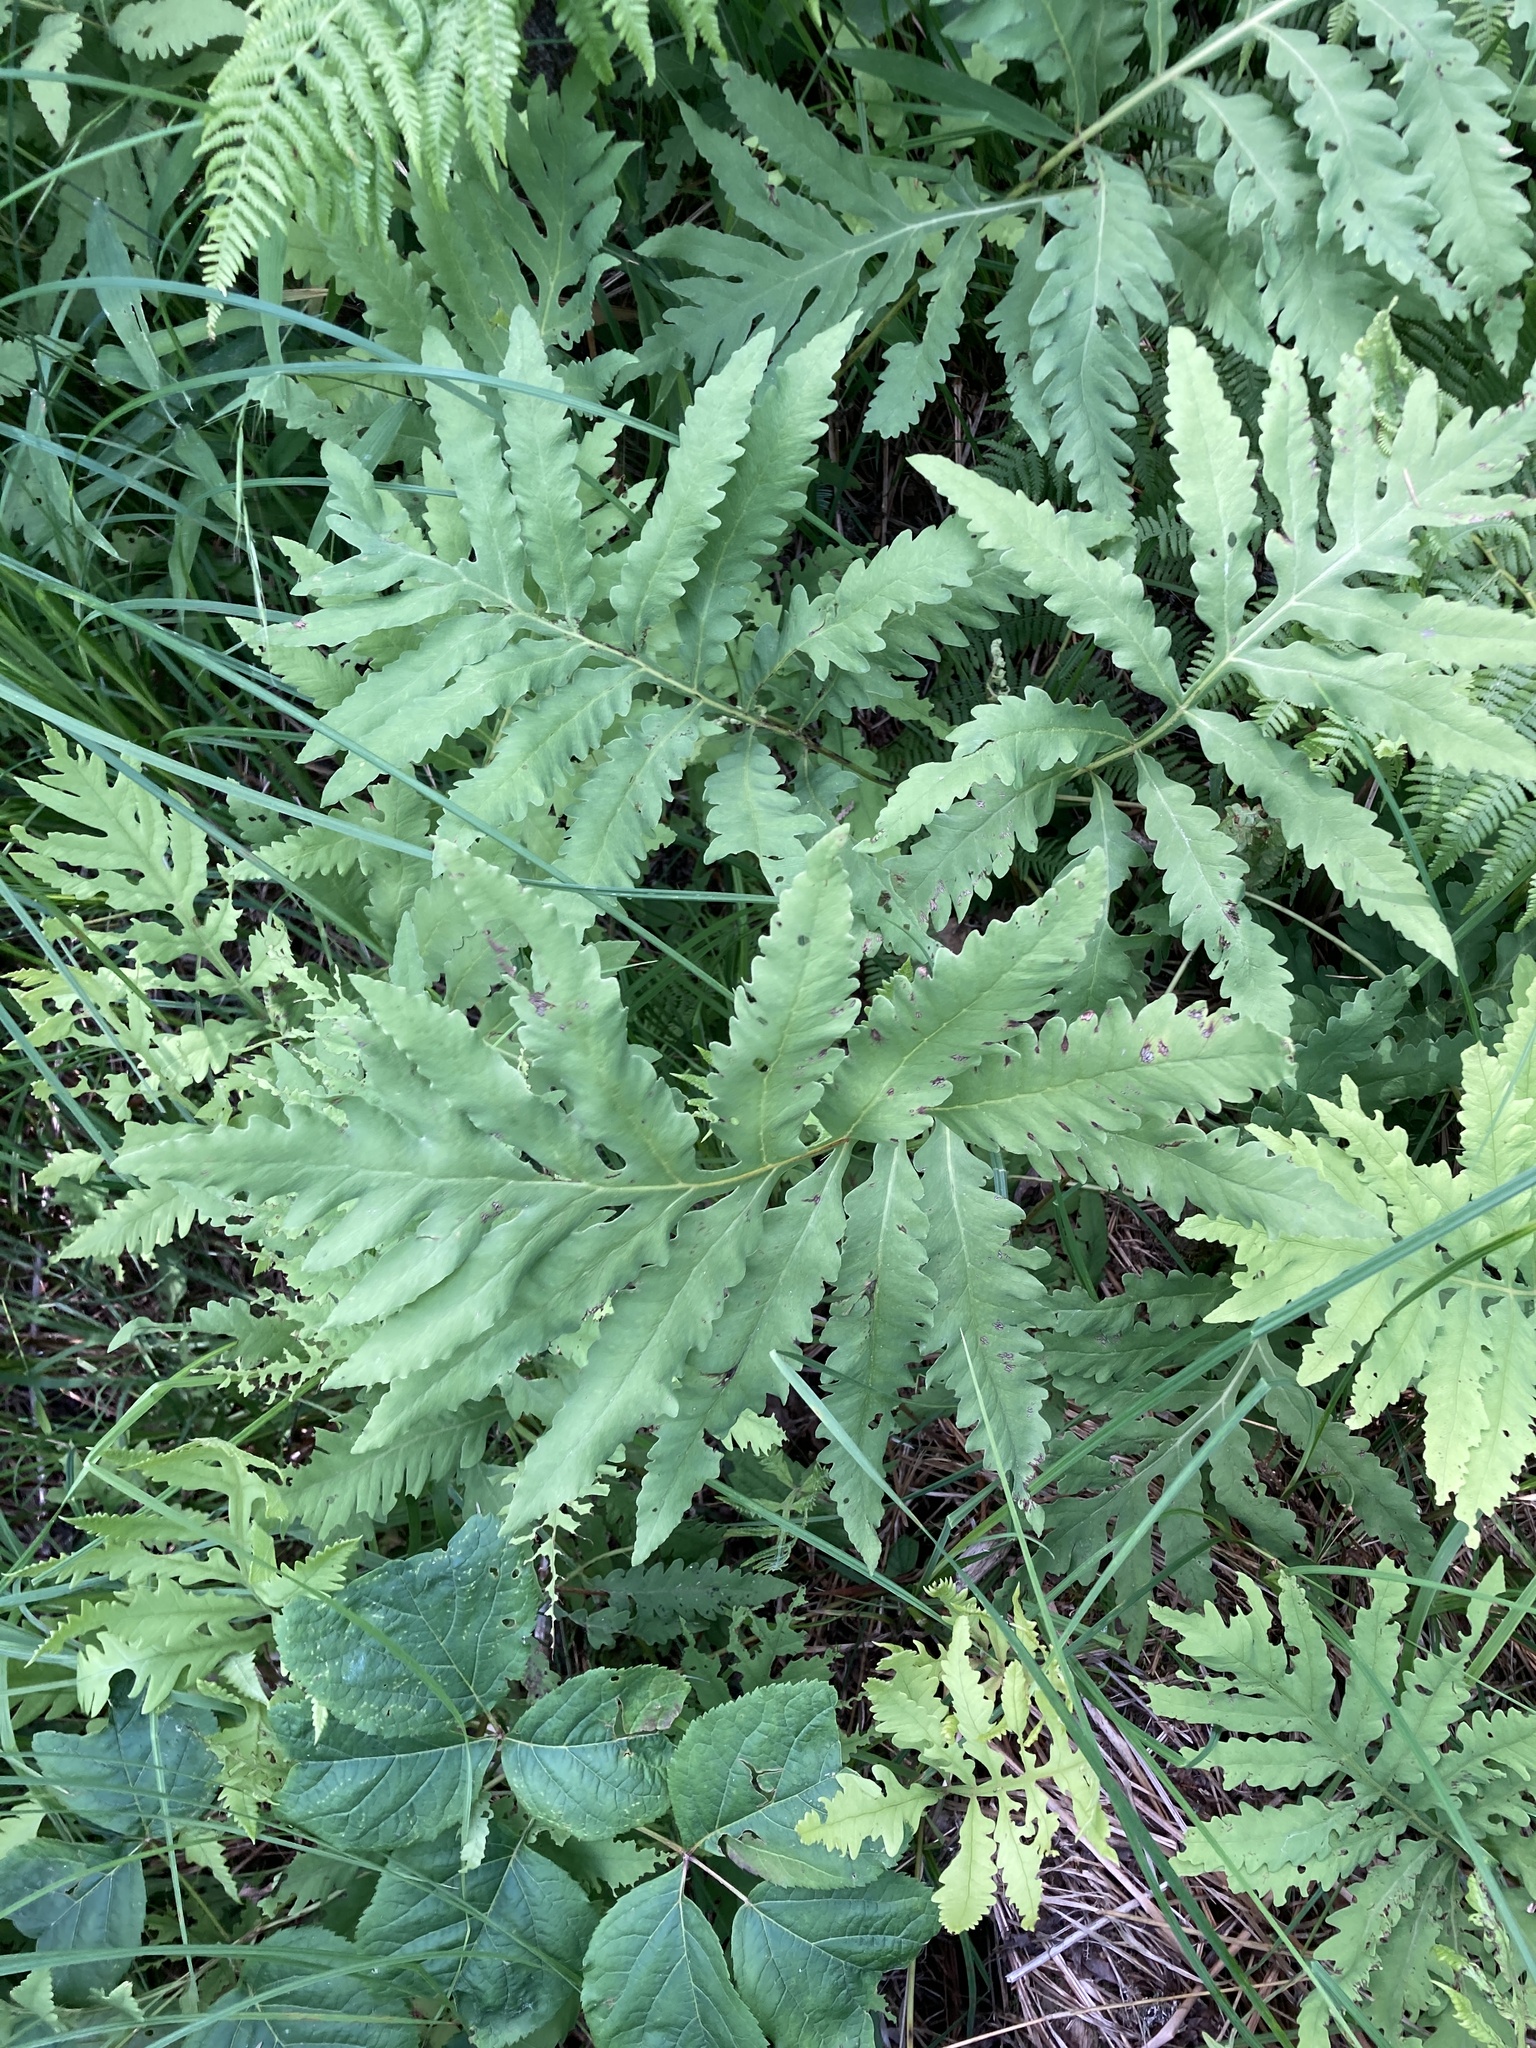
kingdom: Plantae
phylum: Tracheophyta
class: Polypodiopsida
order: Polypodiales
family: Onocleaceae
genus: Onoclea
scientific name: Onoclea sensibilis
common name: Sensitive fern
